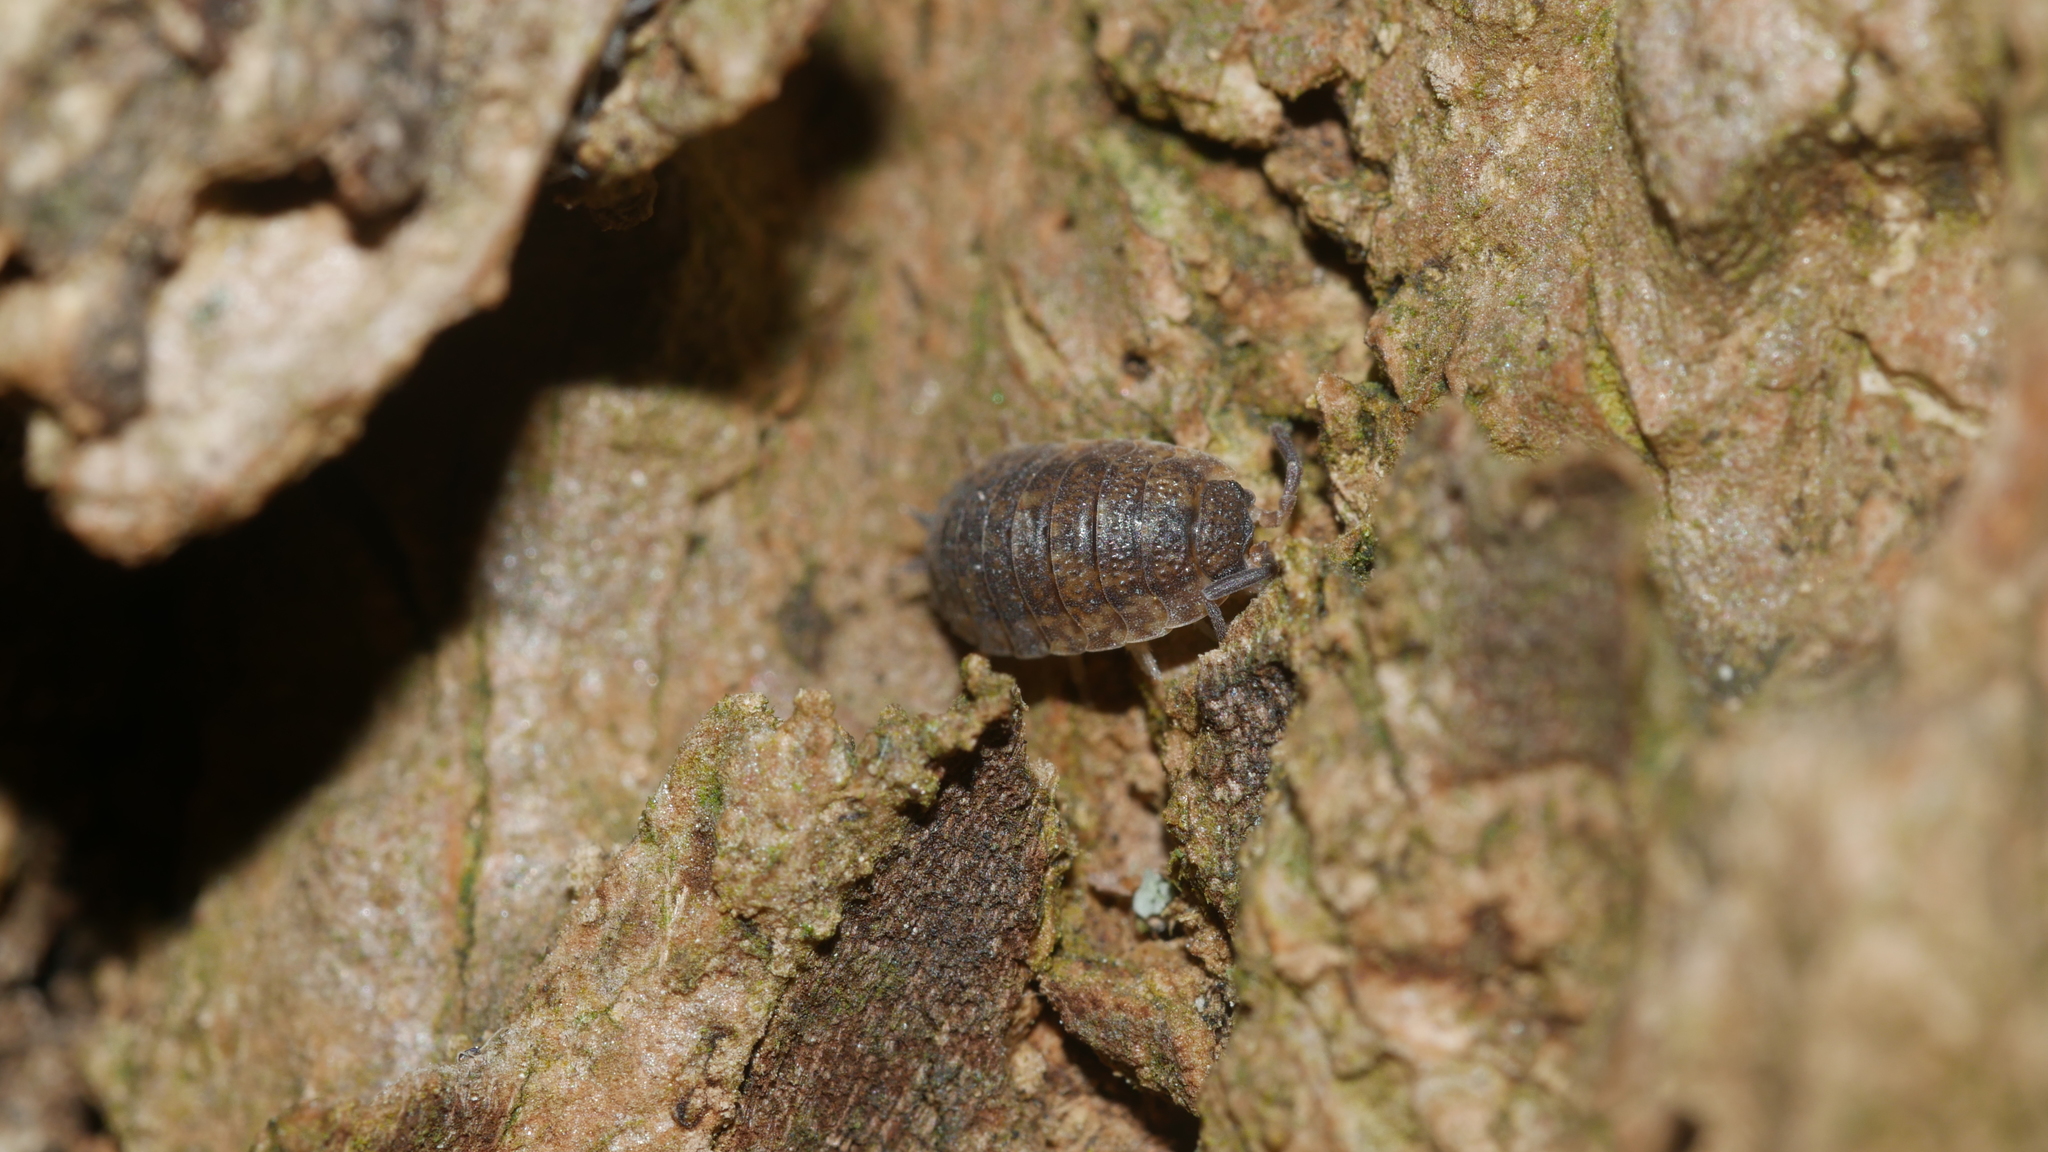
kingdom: Animalia
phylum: Arthropoda
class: Malacostraca
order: Isopoda
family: Porcellionidae
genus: Porcellio
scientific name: Porcellio scaber
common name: Common rough woodlouse
